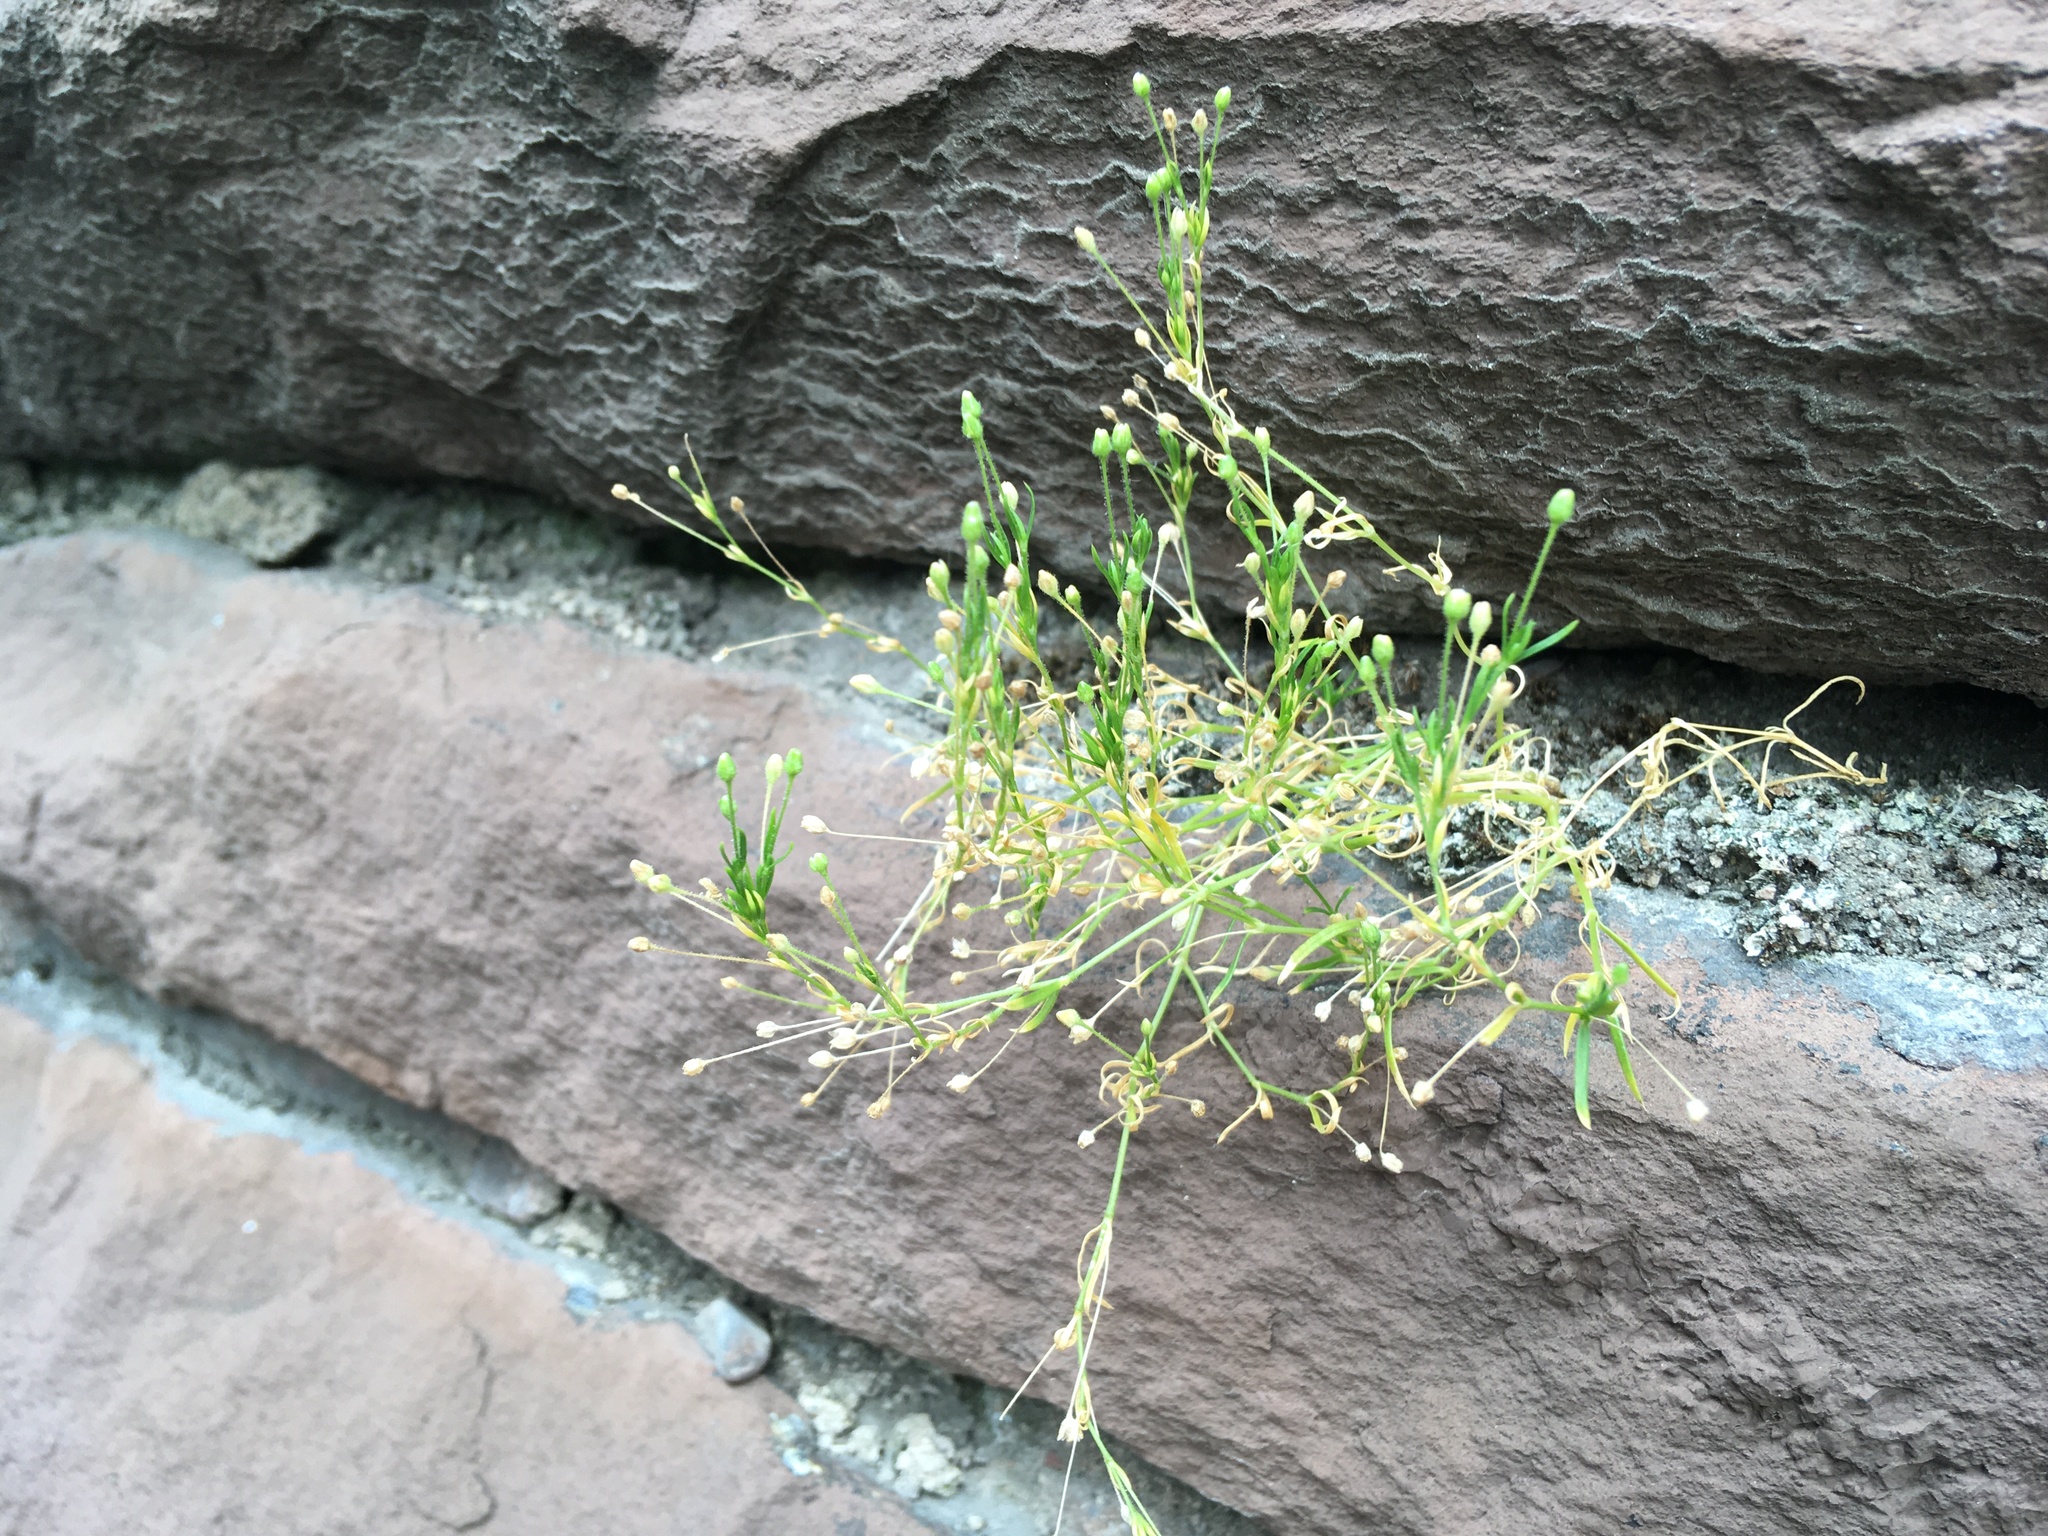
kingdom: Plantae
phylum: Tracheophyta
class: Magnoliopsida
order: Caryophyllales
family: Caryophyllaceae
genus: Sagina
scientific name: Sagina japonica
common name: Japanese pearlwort
